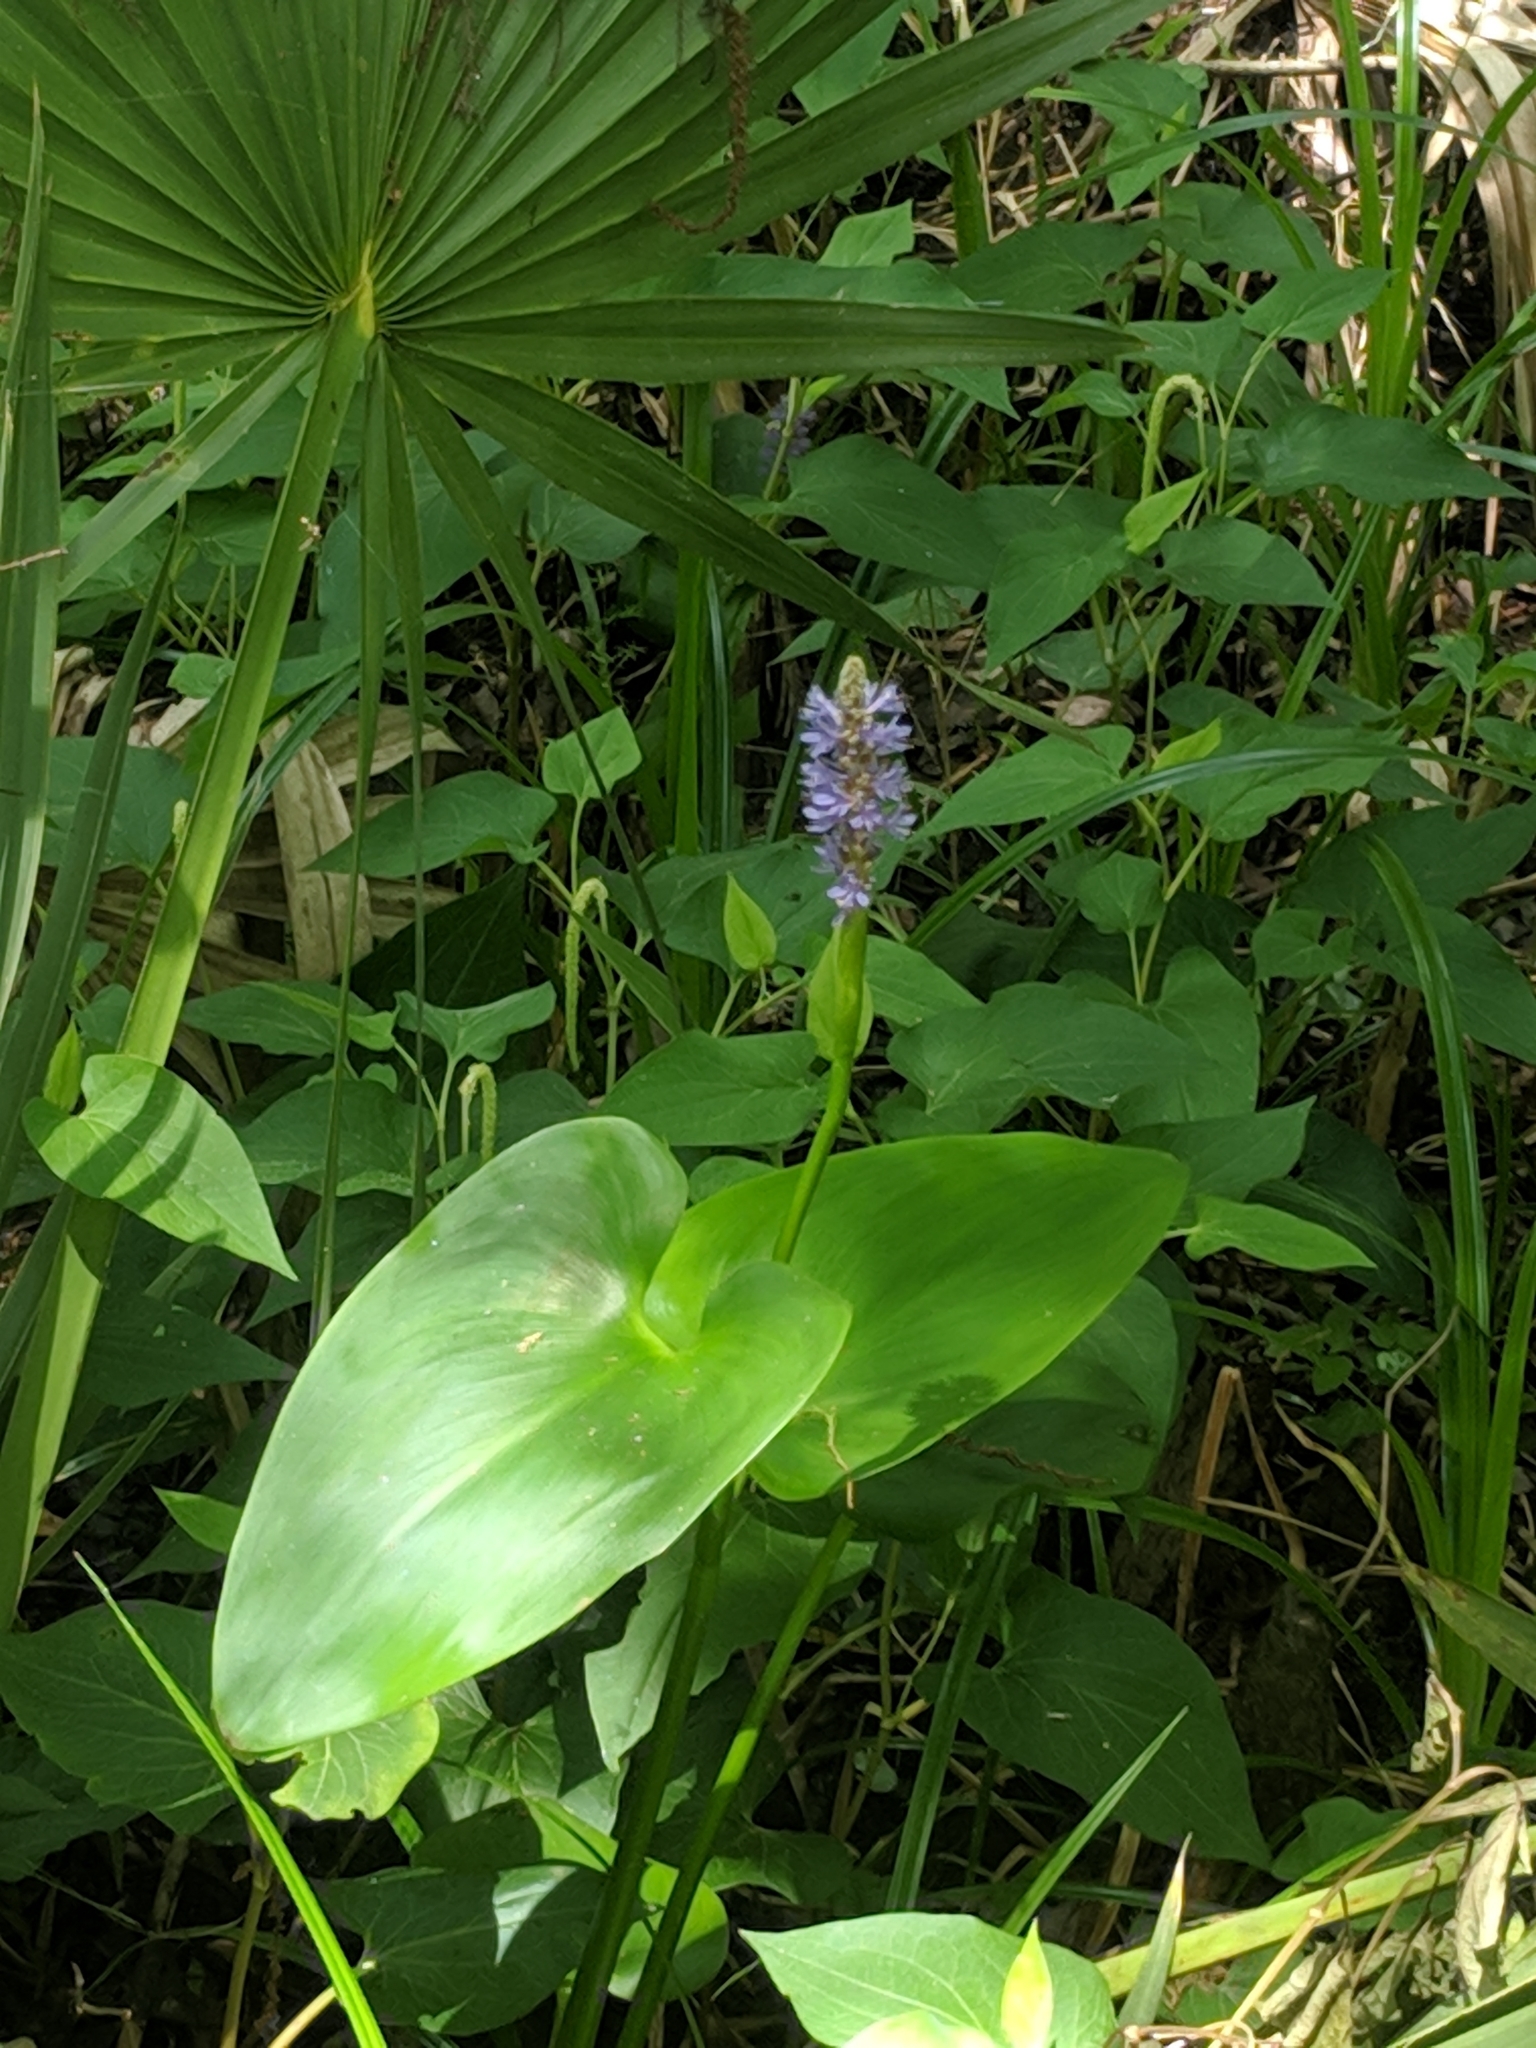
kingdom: Plantae
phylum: Tracheophyta
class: Liliopsida
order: Commelinales
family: Pontederiaceae
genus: Pontederia
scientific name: Pontederia cordata
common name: Pickerelweed
